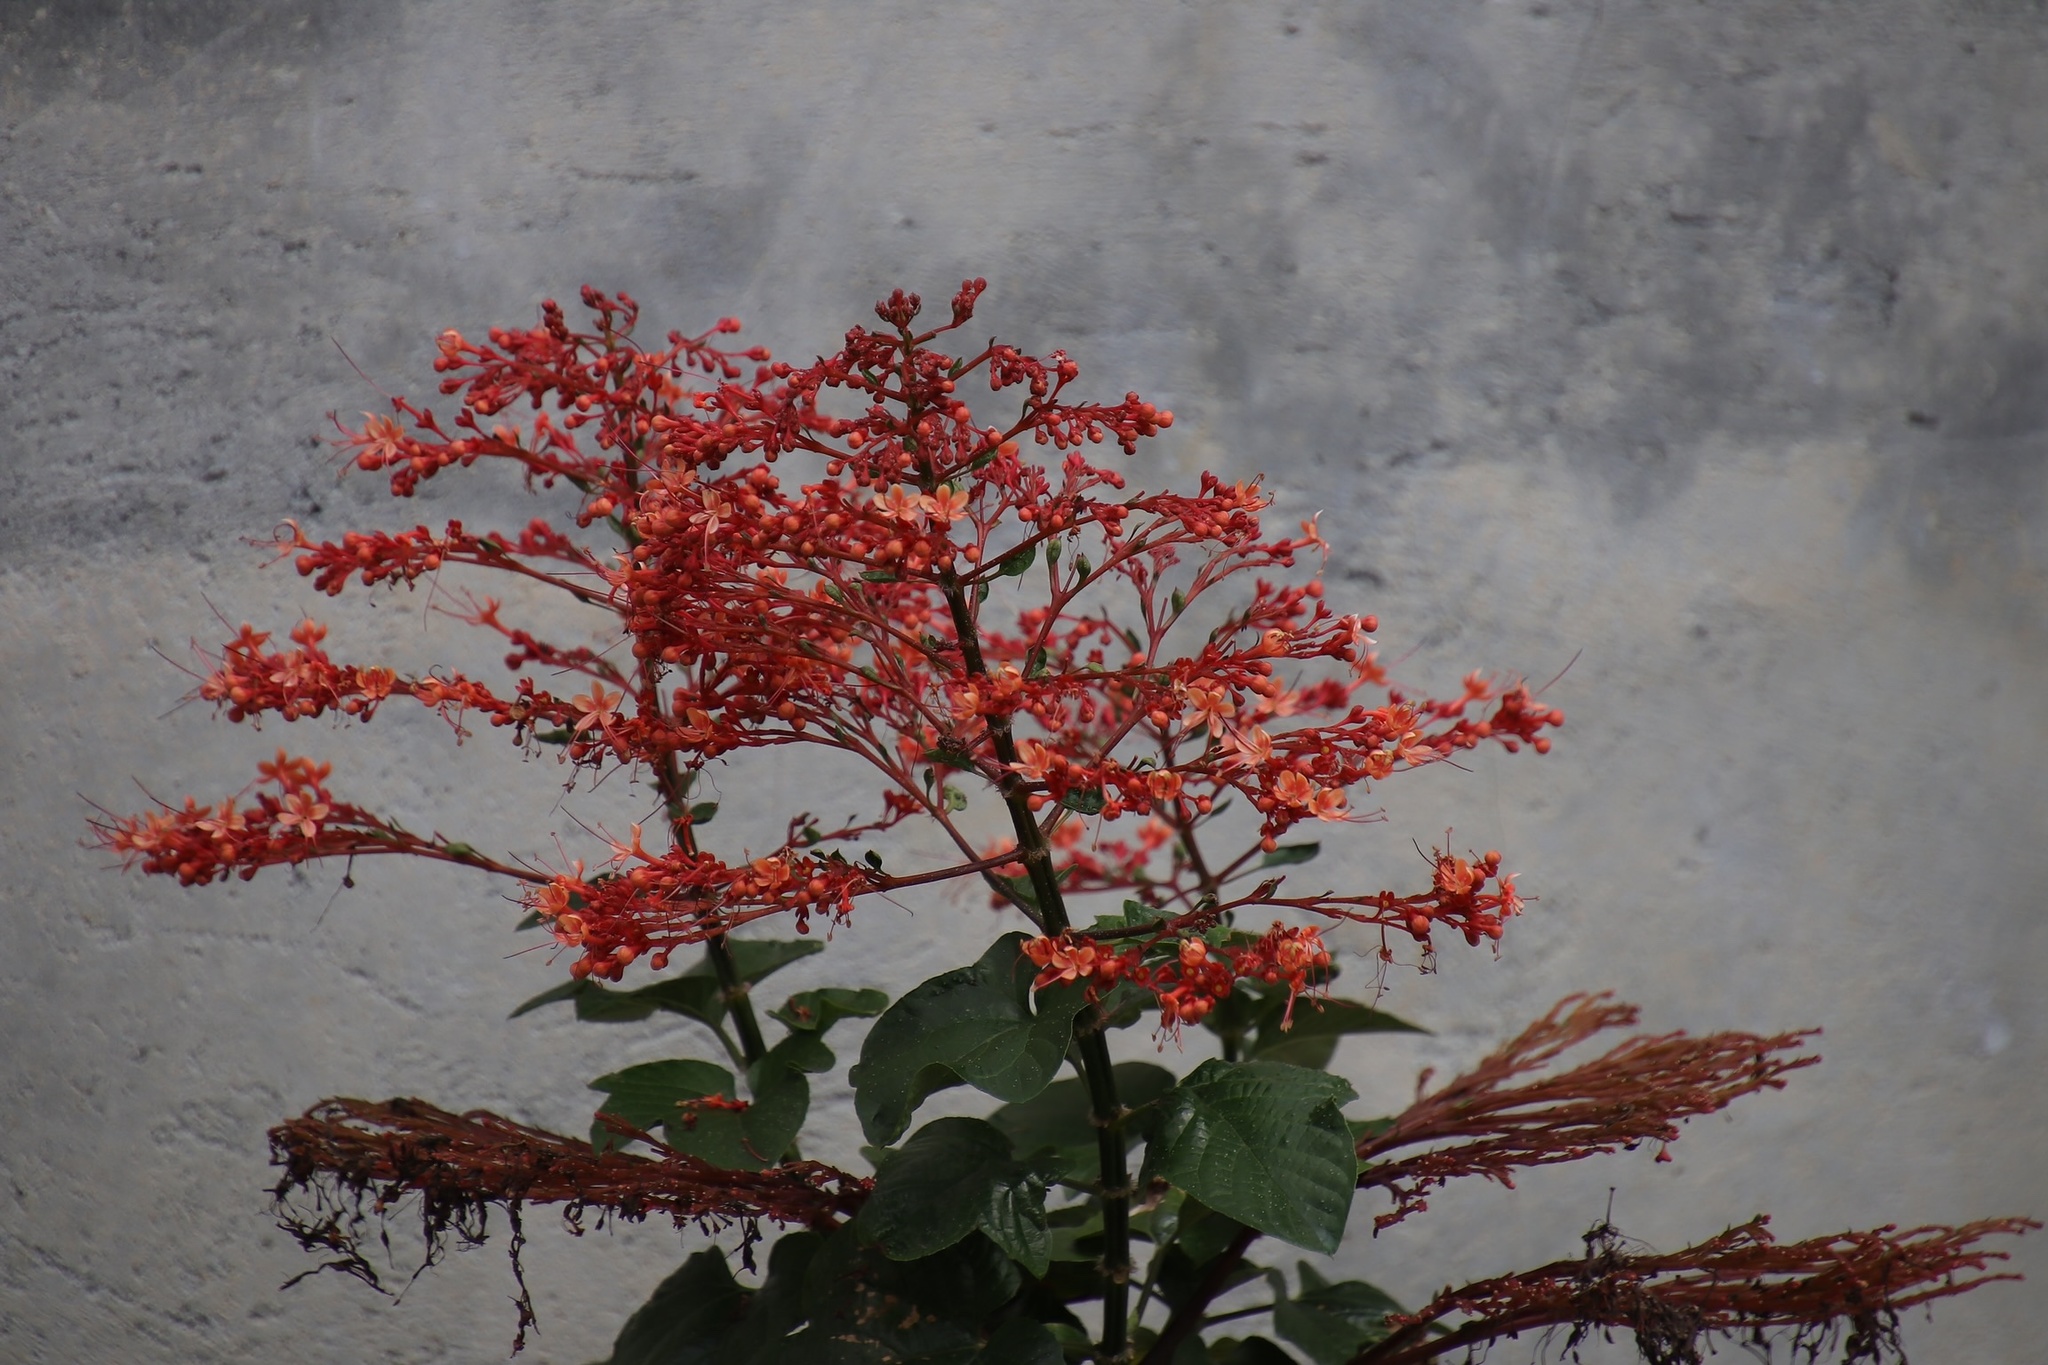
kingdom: Plantae
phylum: Tracheophyta
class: Magnoliopsida
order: Lamiales
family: Lamiaceae
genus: Clerodendrum
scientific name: Clerodendrum paniculatum
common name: Pagoda-flower
